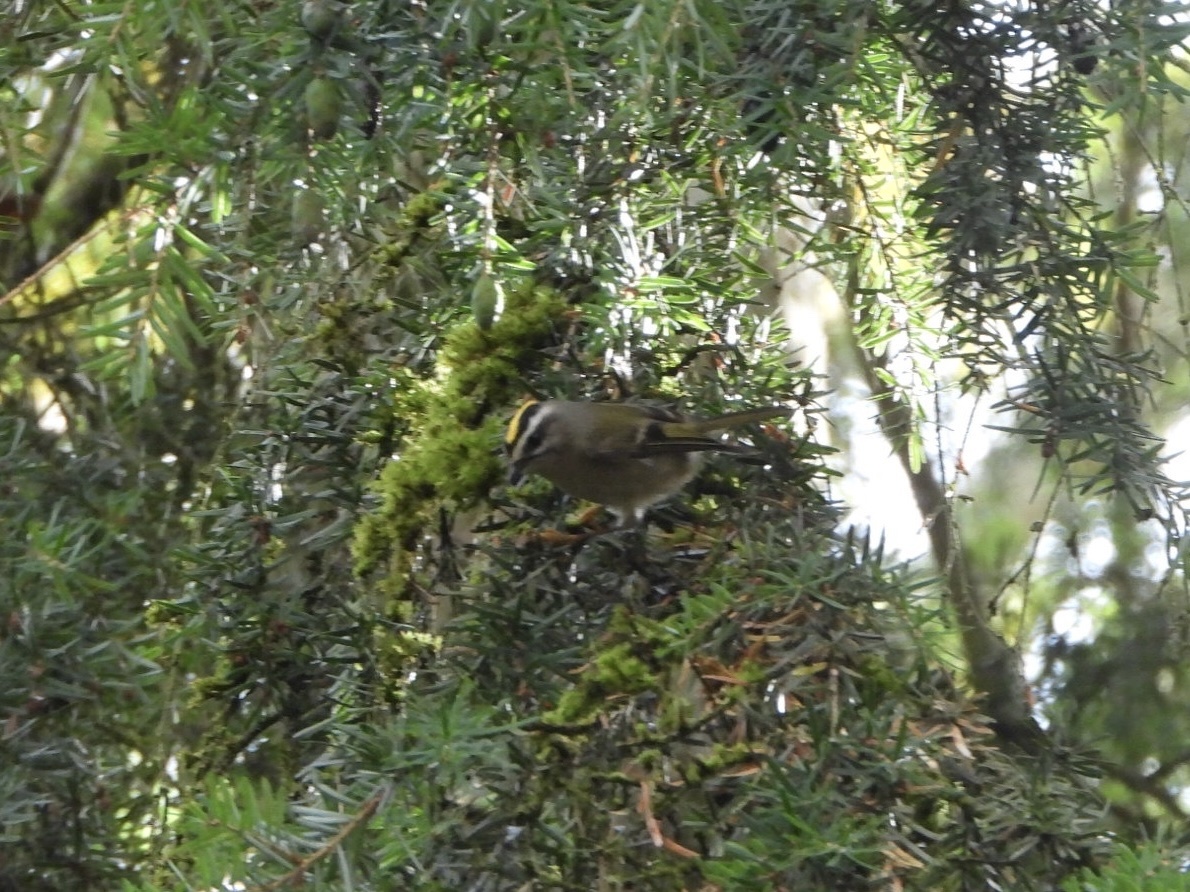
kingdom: Animalia
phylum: Chordata
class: Aves
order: Passeriformes
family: Regulidae
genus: Regulus
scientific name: Regulus satrapa
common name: Golden-crowned kinglet
